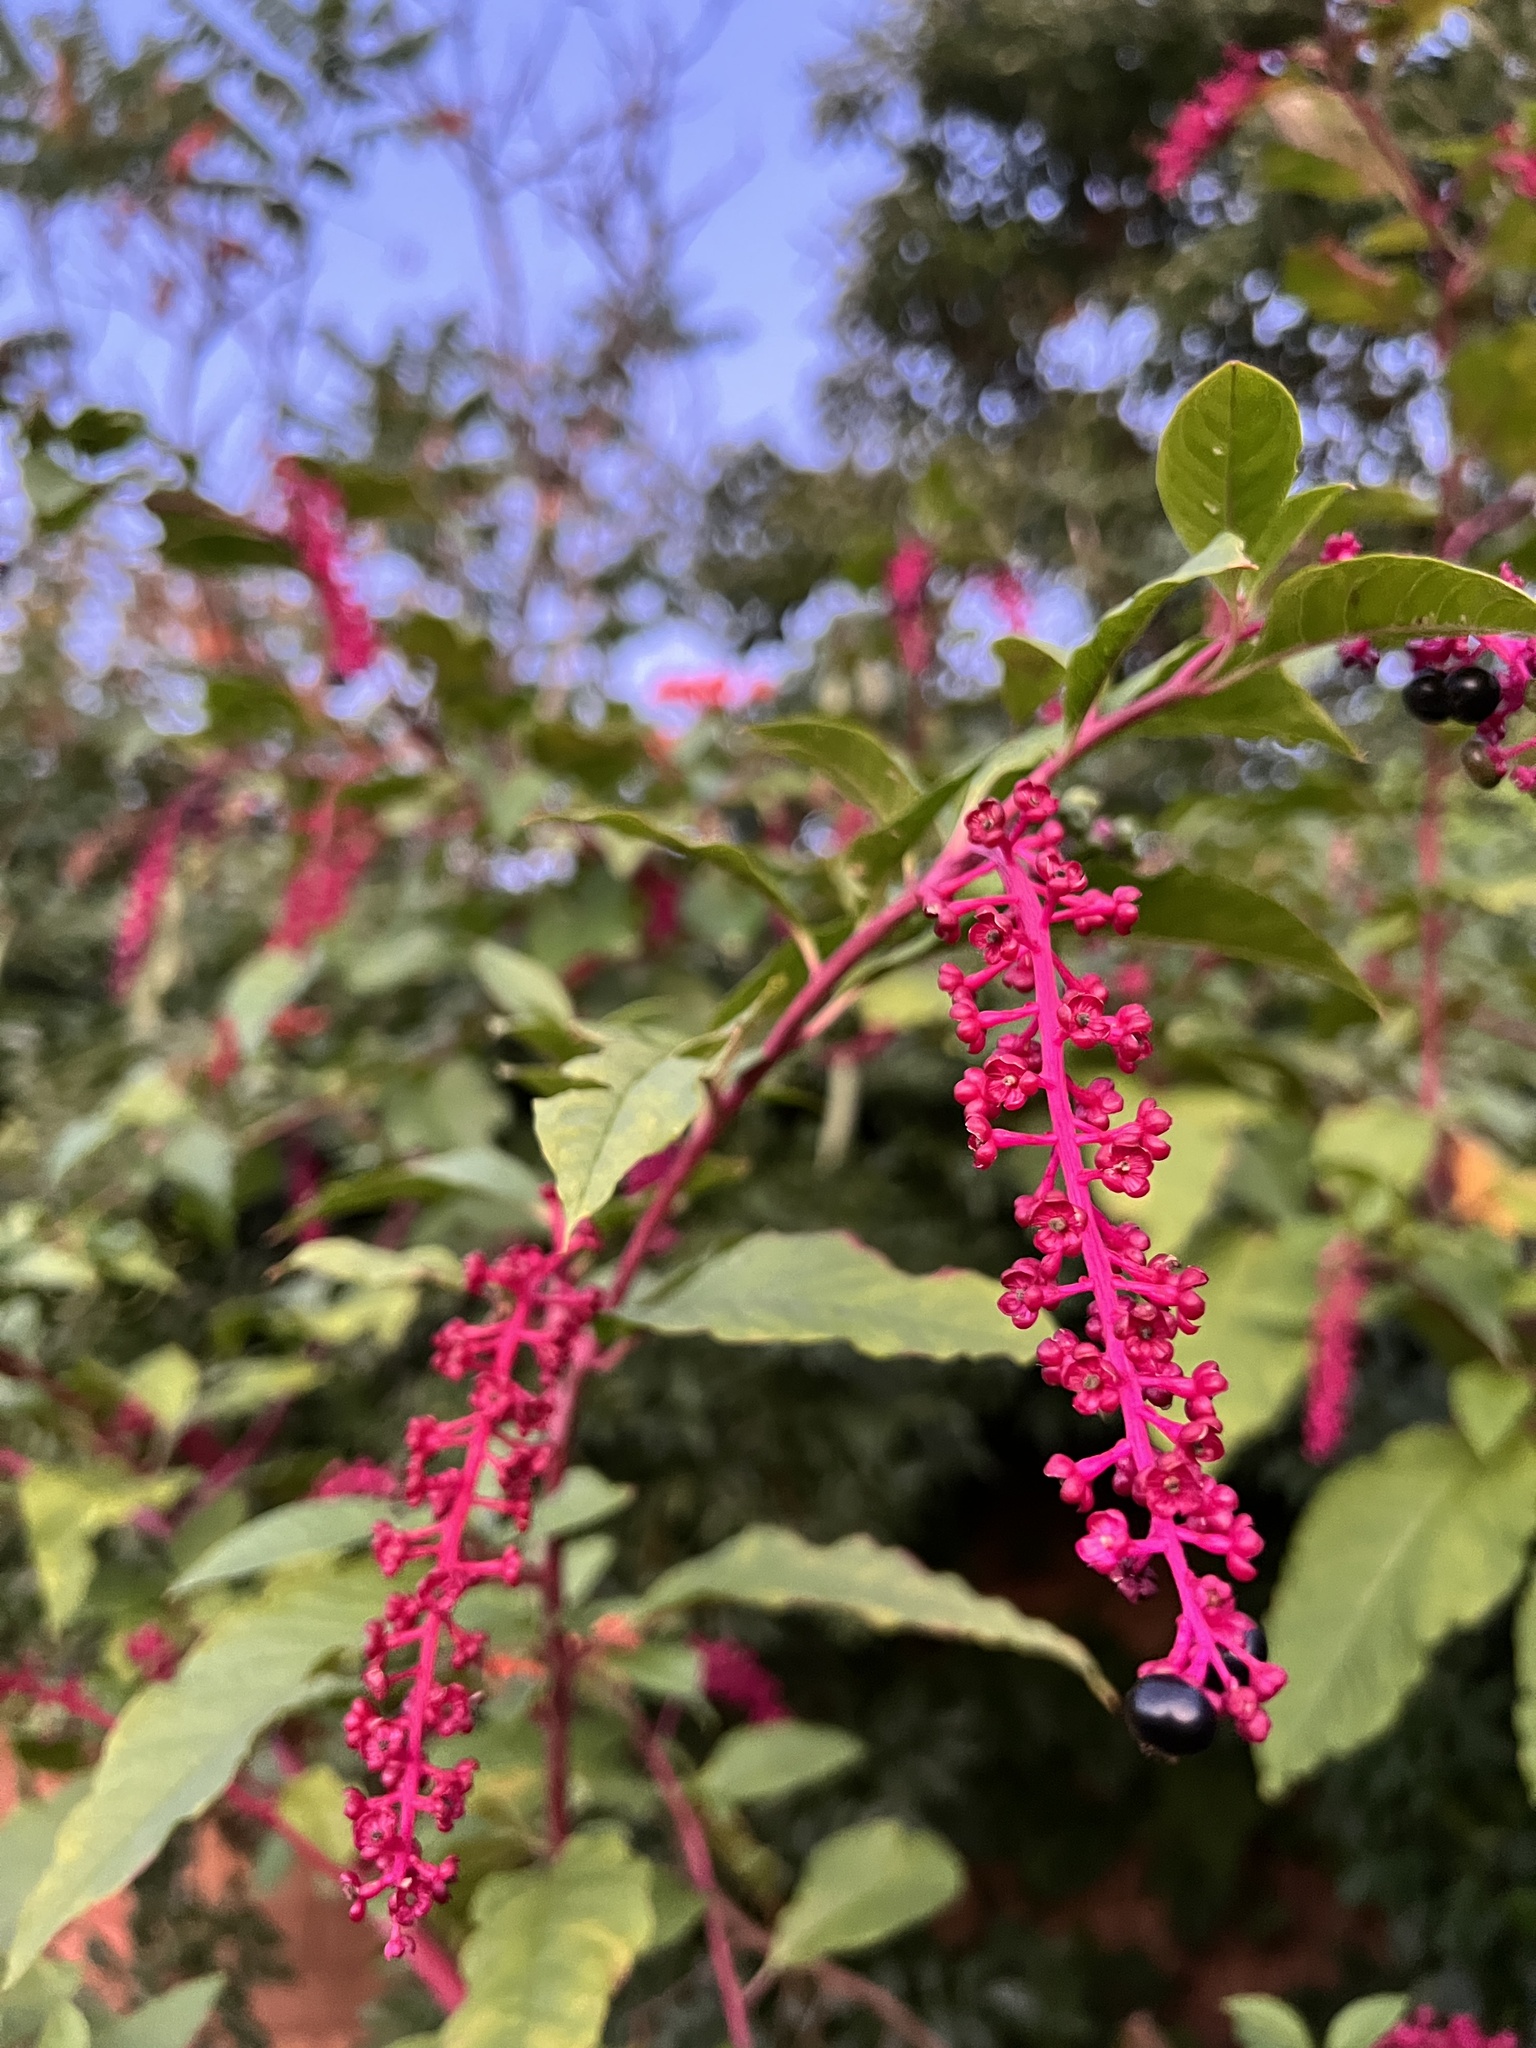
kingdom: Plantae
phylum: Tracheophyta
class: Magnoliopsida
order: Caryophyllales
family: Phytolaccaceae
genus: Phytolacca
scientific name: Phytolacca americana
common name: American pokeweed
